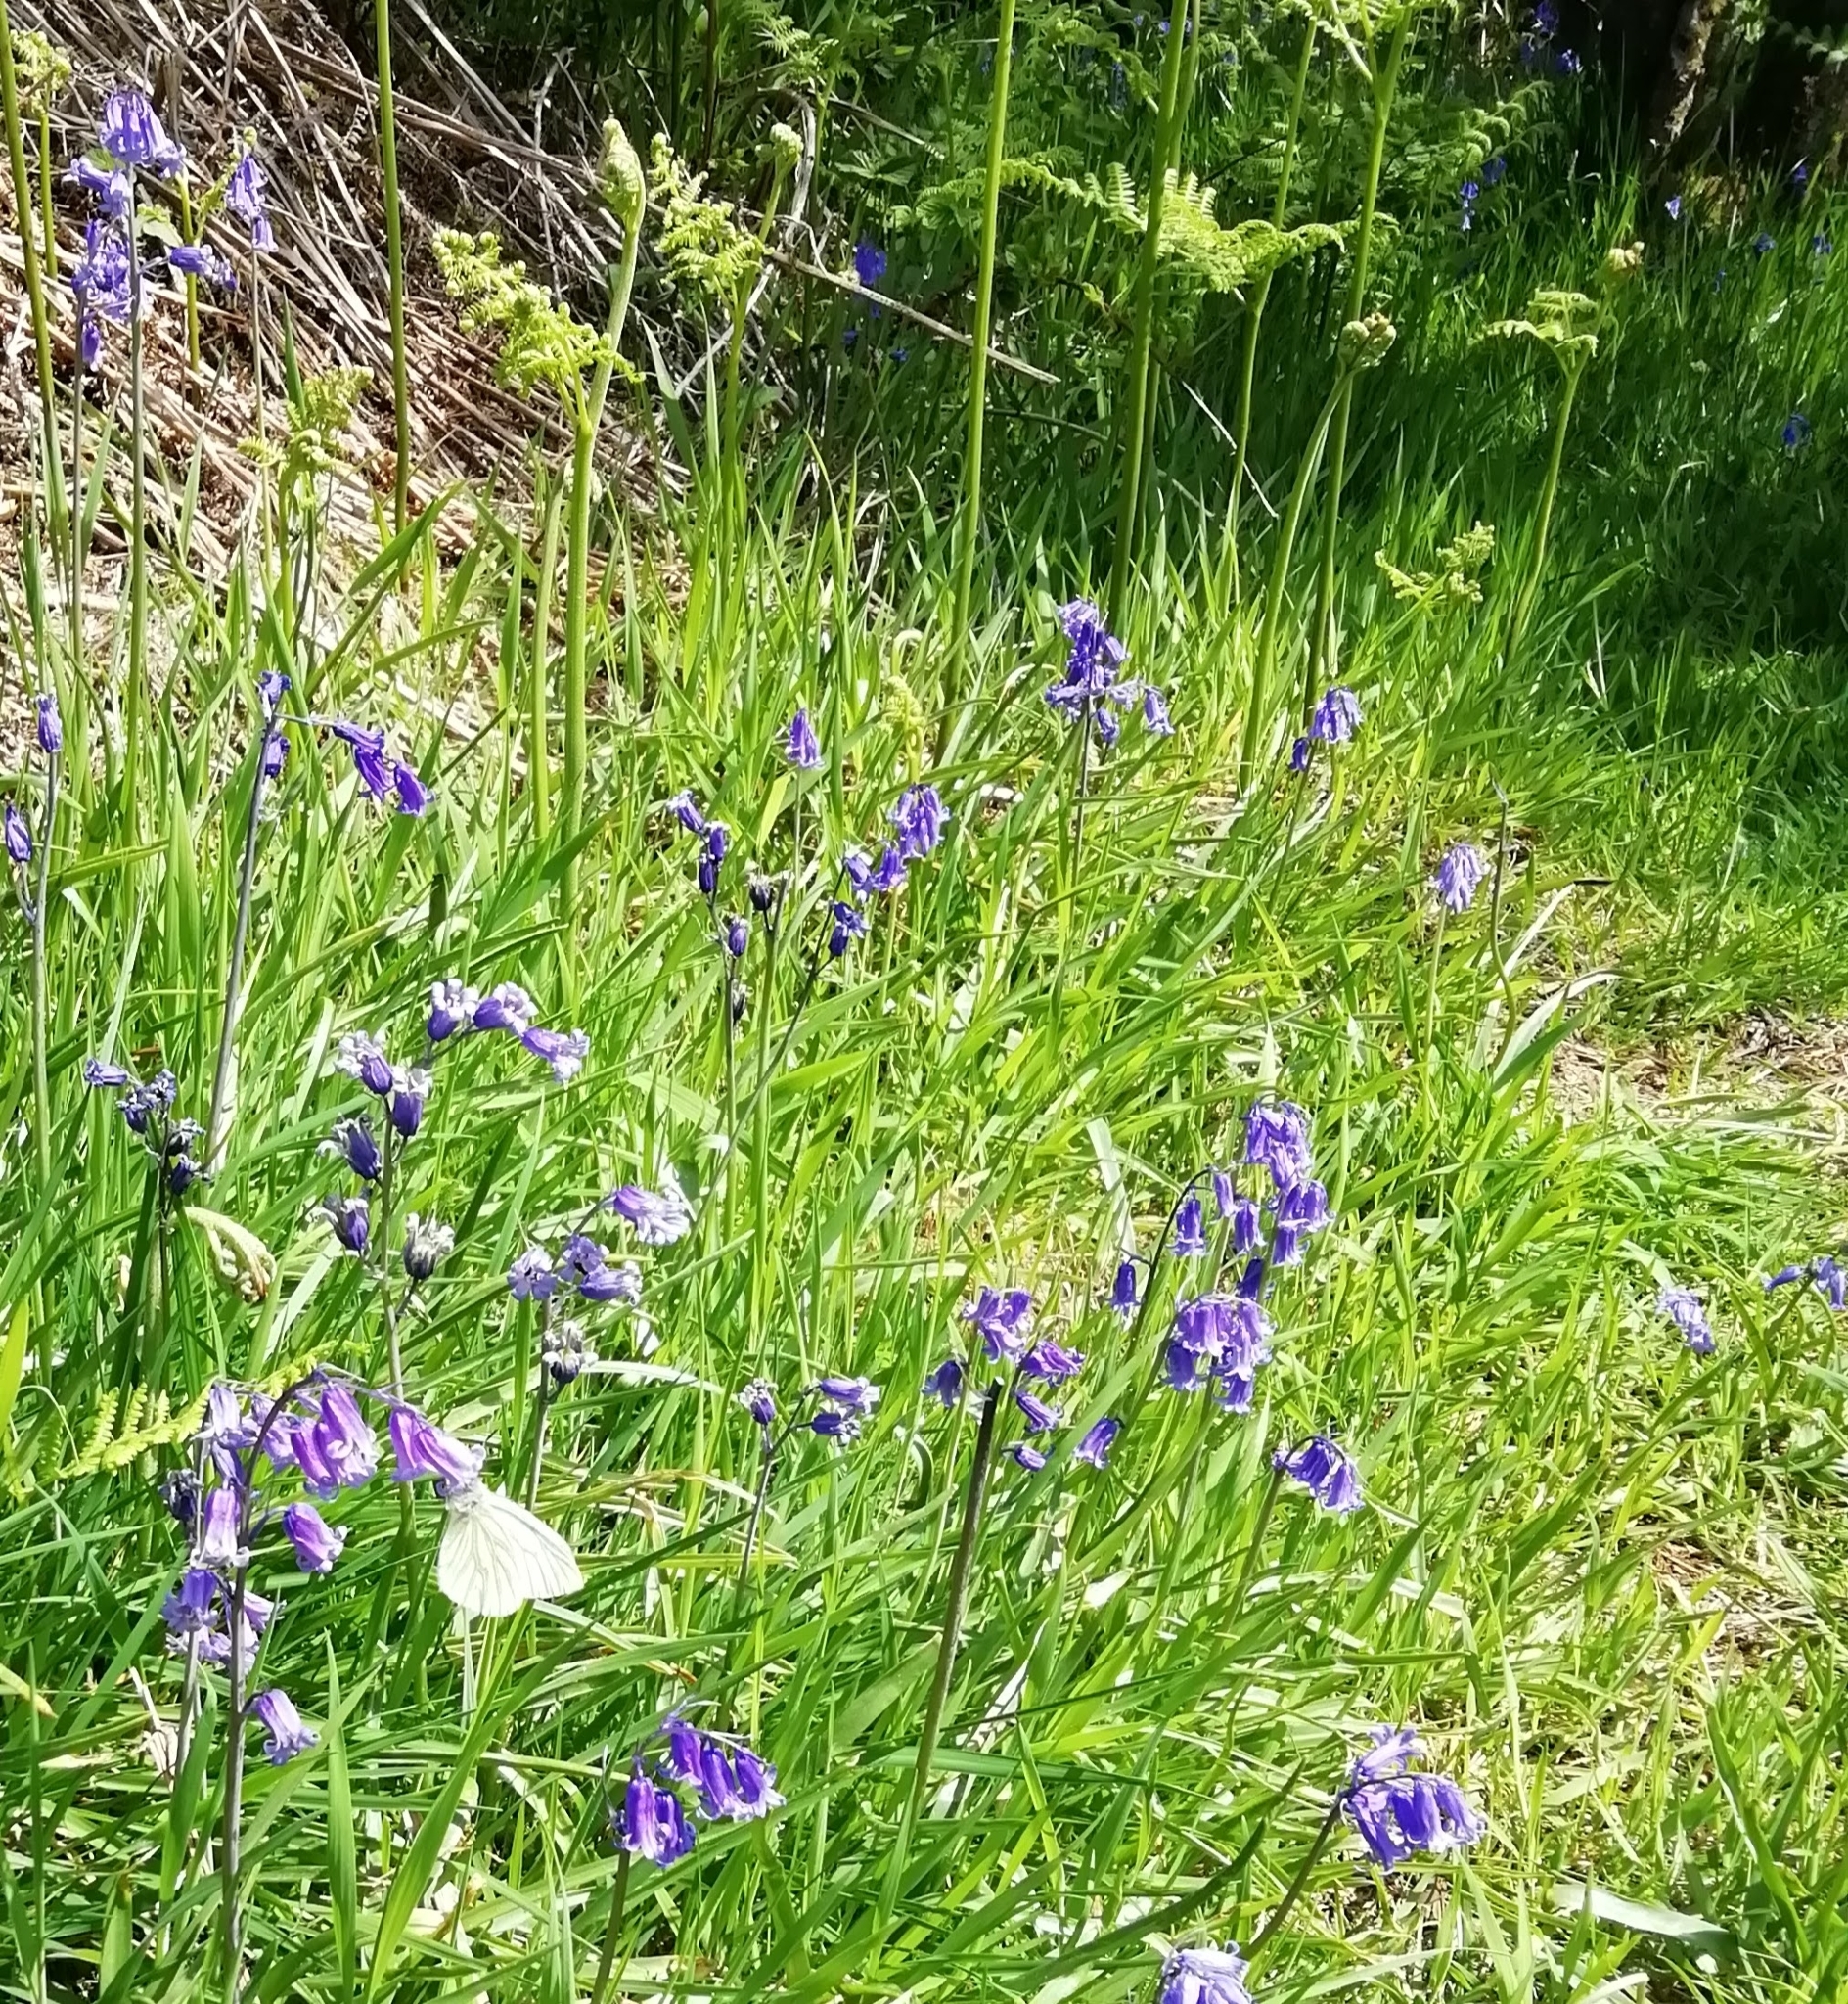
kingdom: Animalia
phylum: Arthropoda
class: Insecta
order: Lepidoptera
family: Pieridae
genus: Pieris
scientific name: Pieris napi
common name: Green-veined white
